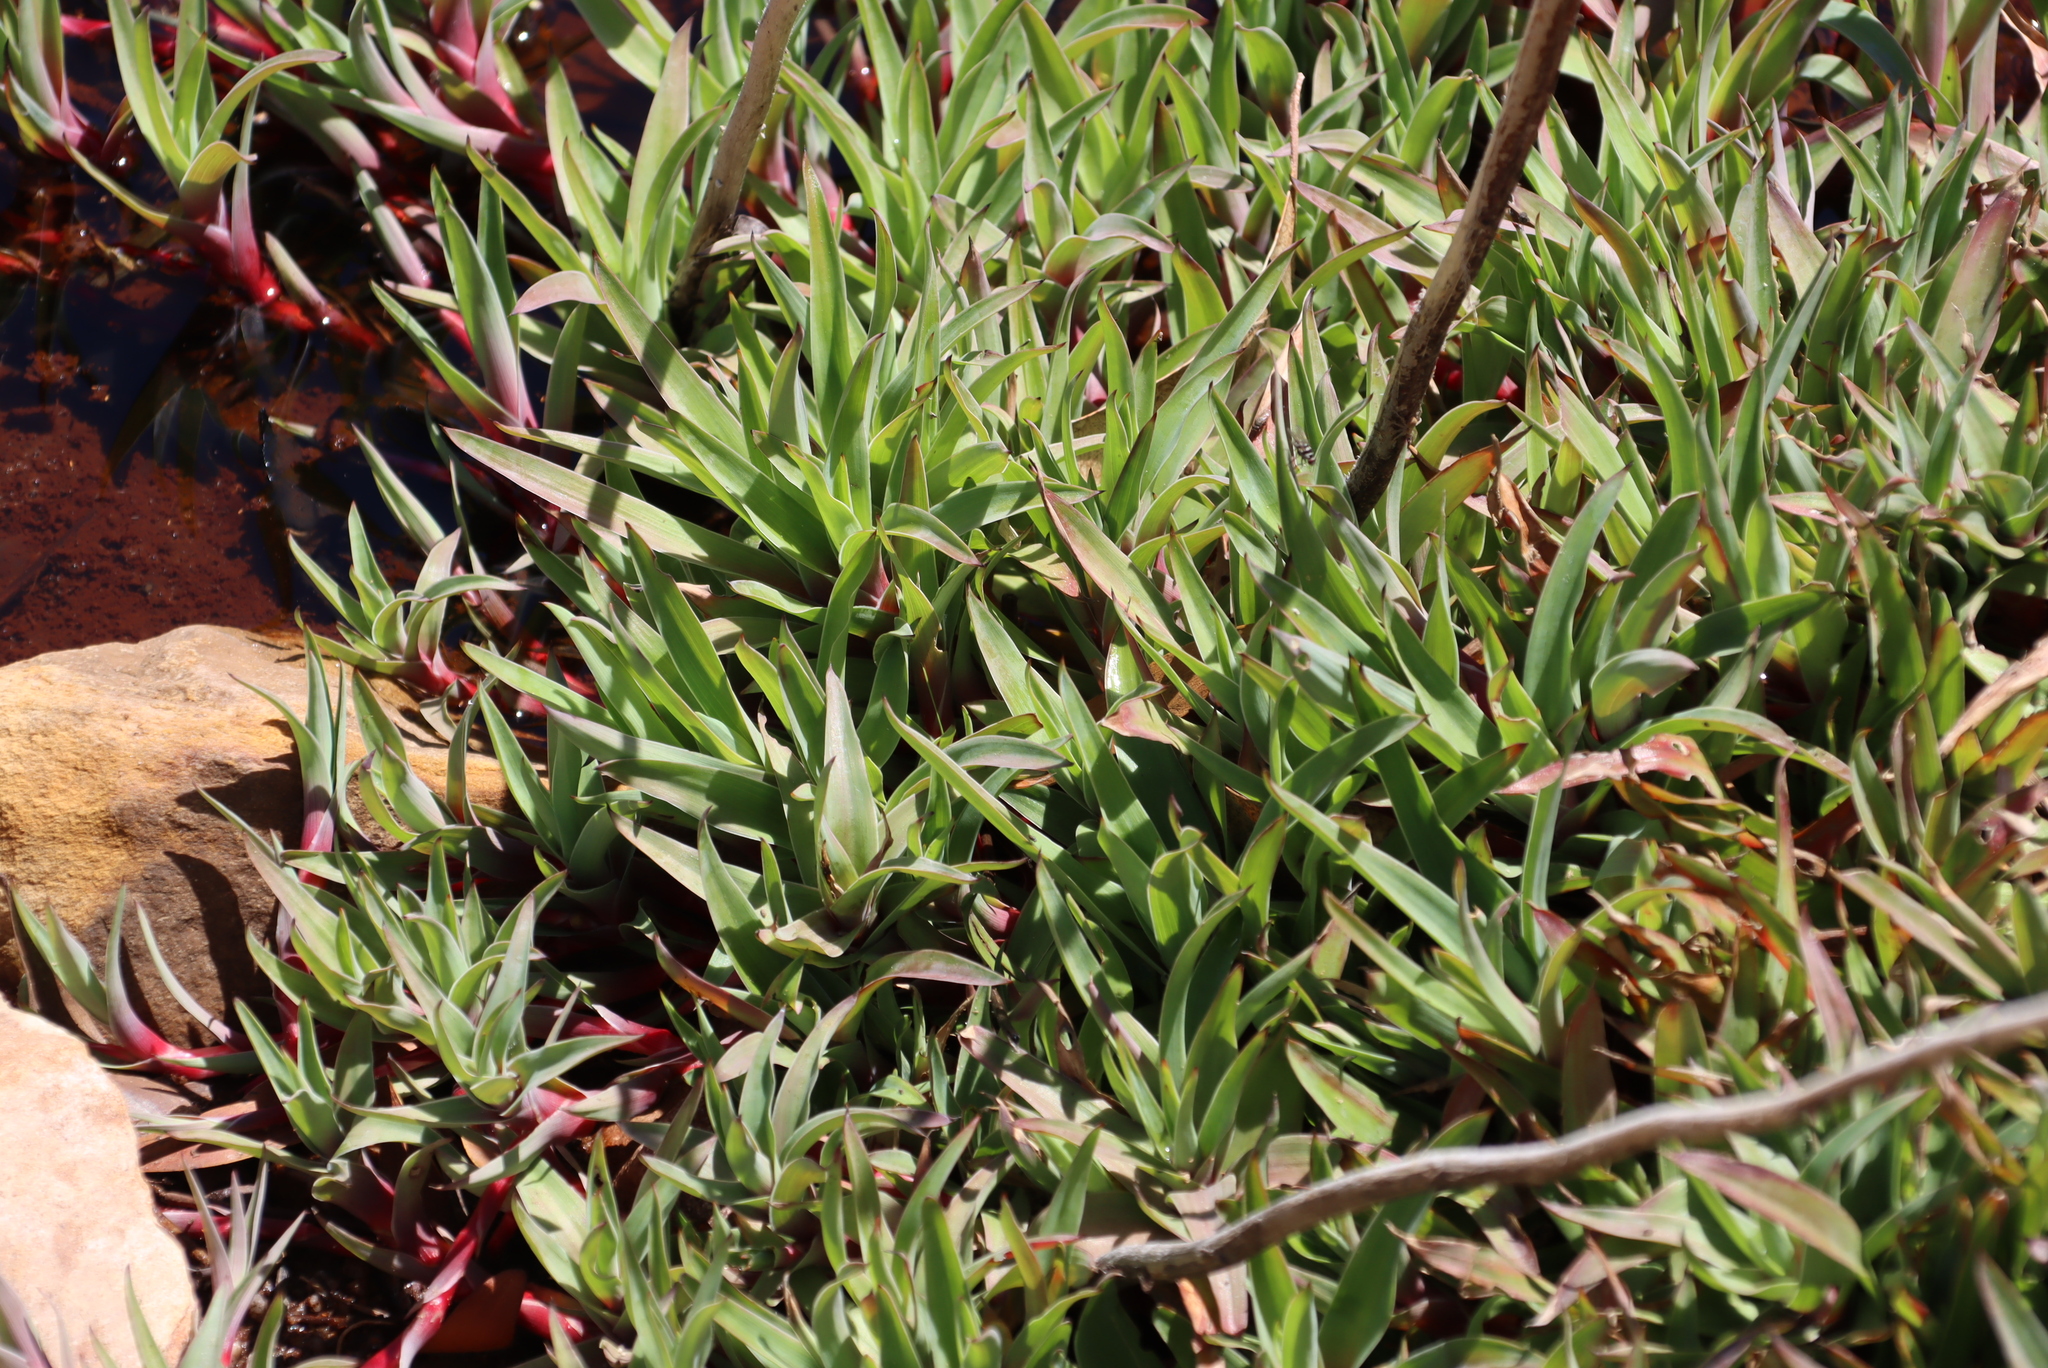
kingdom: Plantae
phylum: Tracheophyta
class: Liliopsida
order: Poales
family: Juncaceae
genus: Juncus
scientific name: Juncus lomatophyllus
